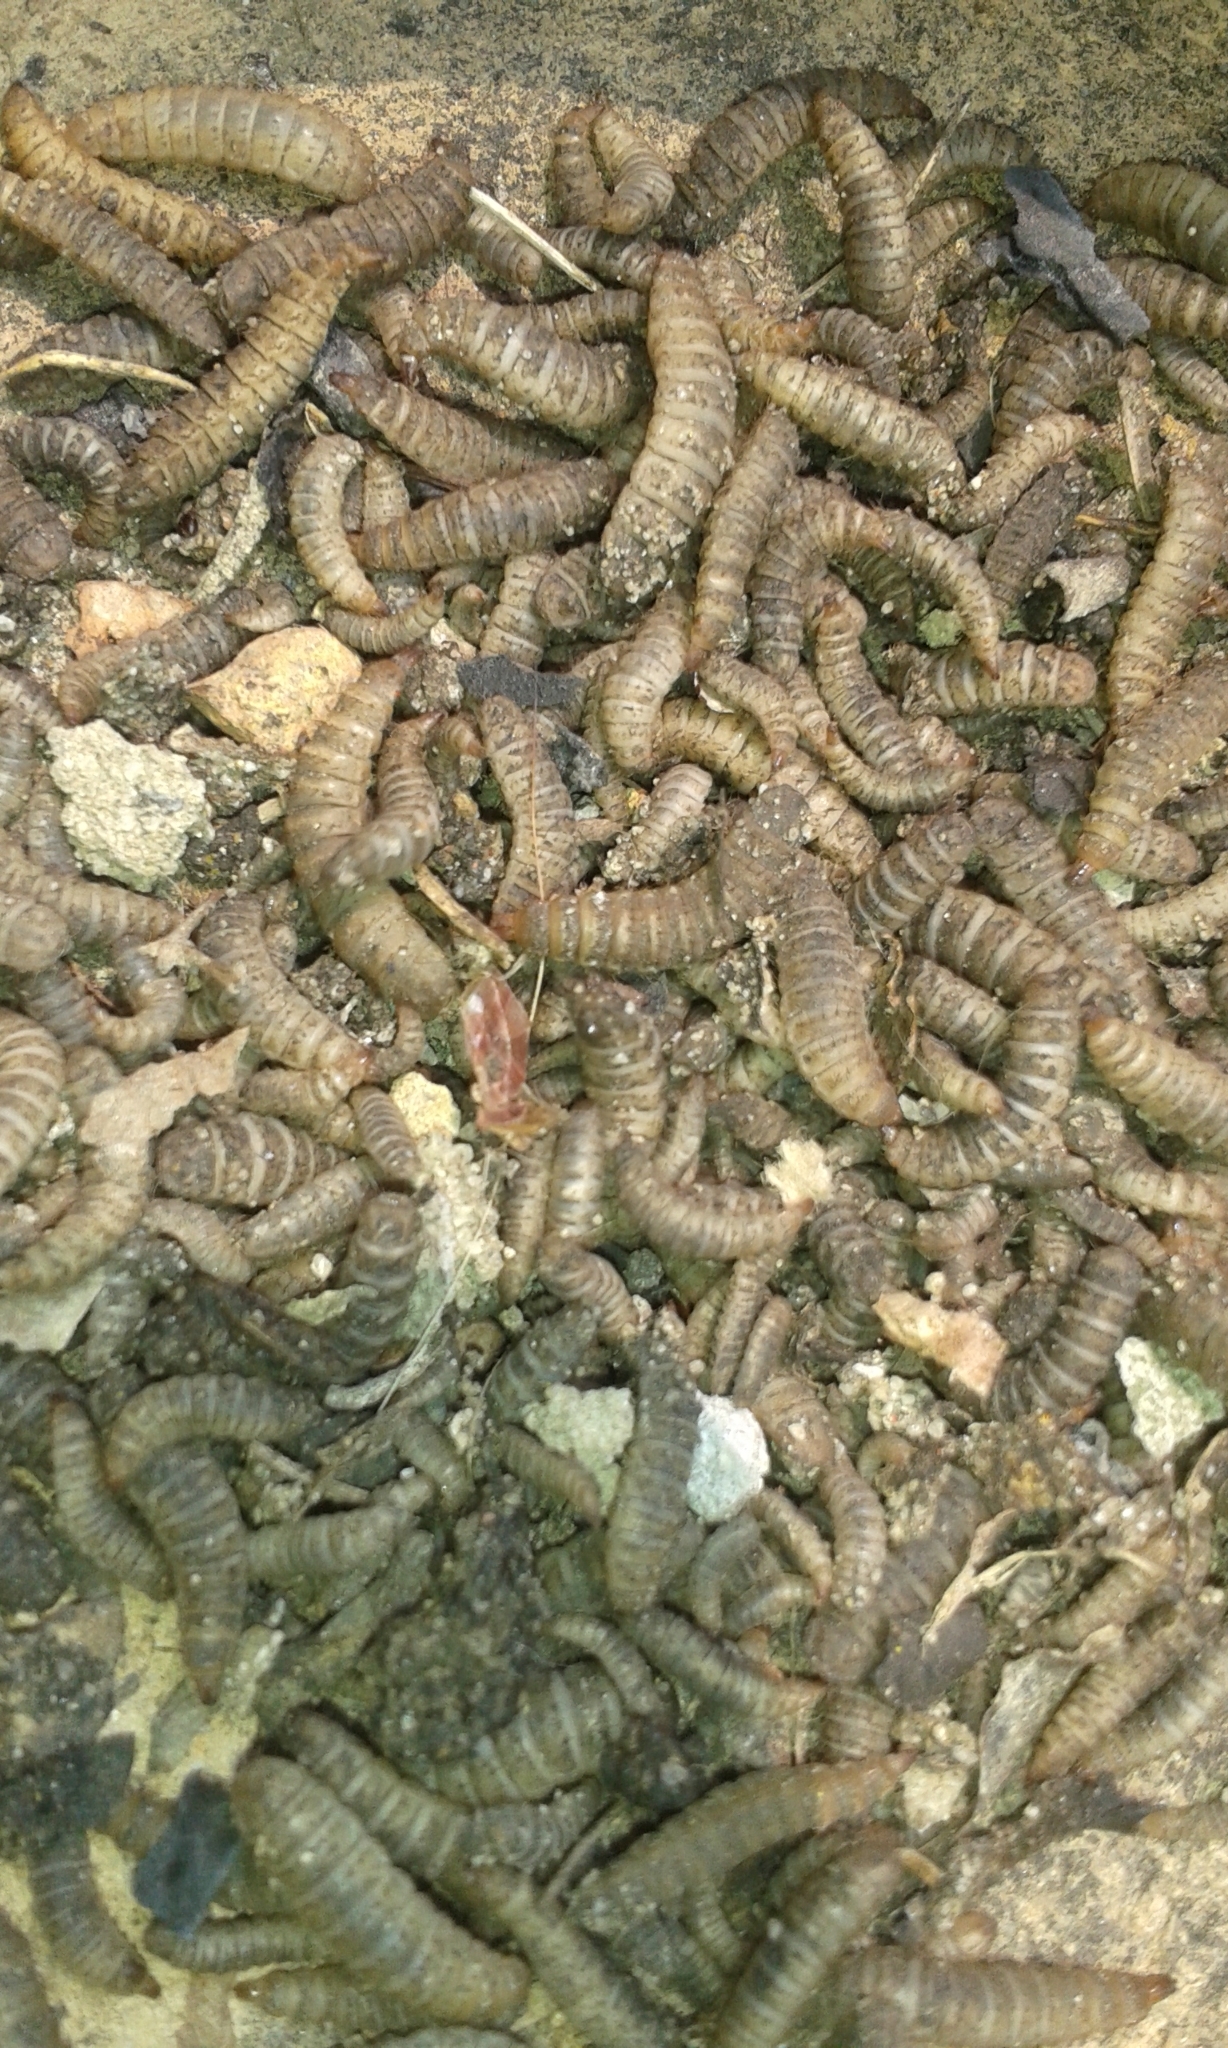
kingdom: Animalia
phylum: Arthropoda
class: Insecta
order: Diptera
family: Stratiomyidae
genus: Hermetia
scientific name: Hermetia illucens
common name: Black soldier fly
